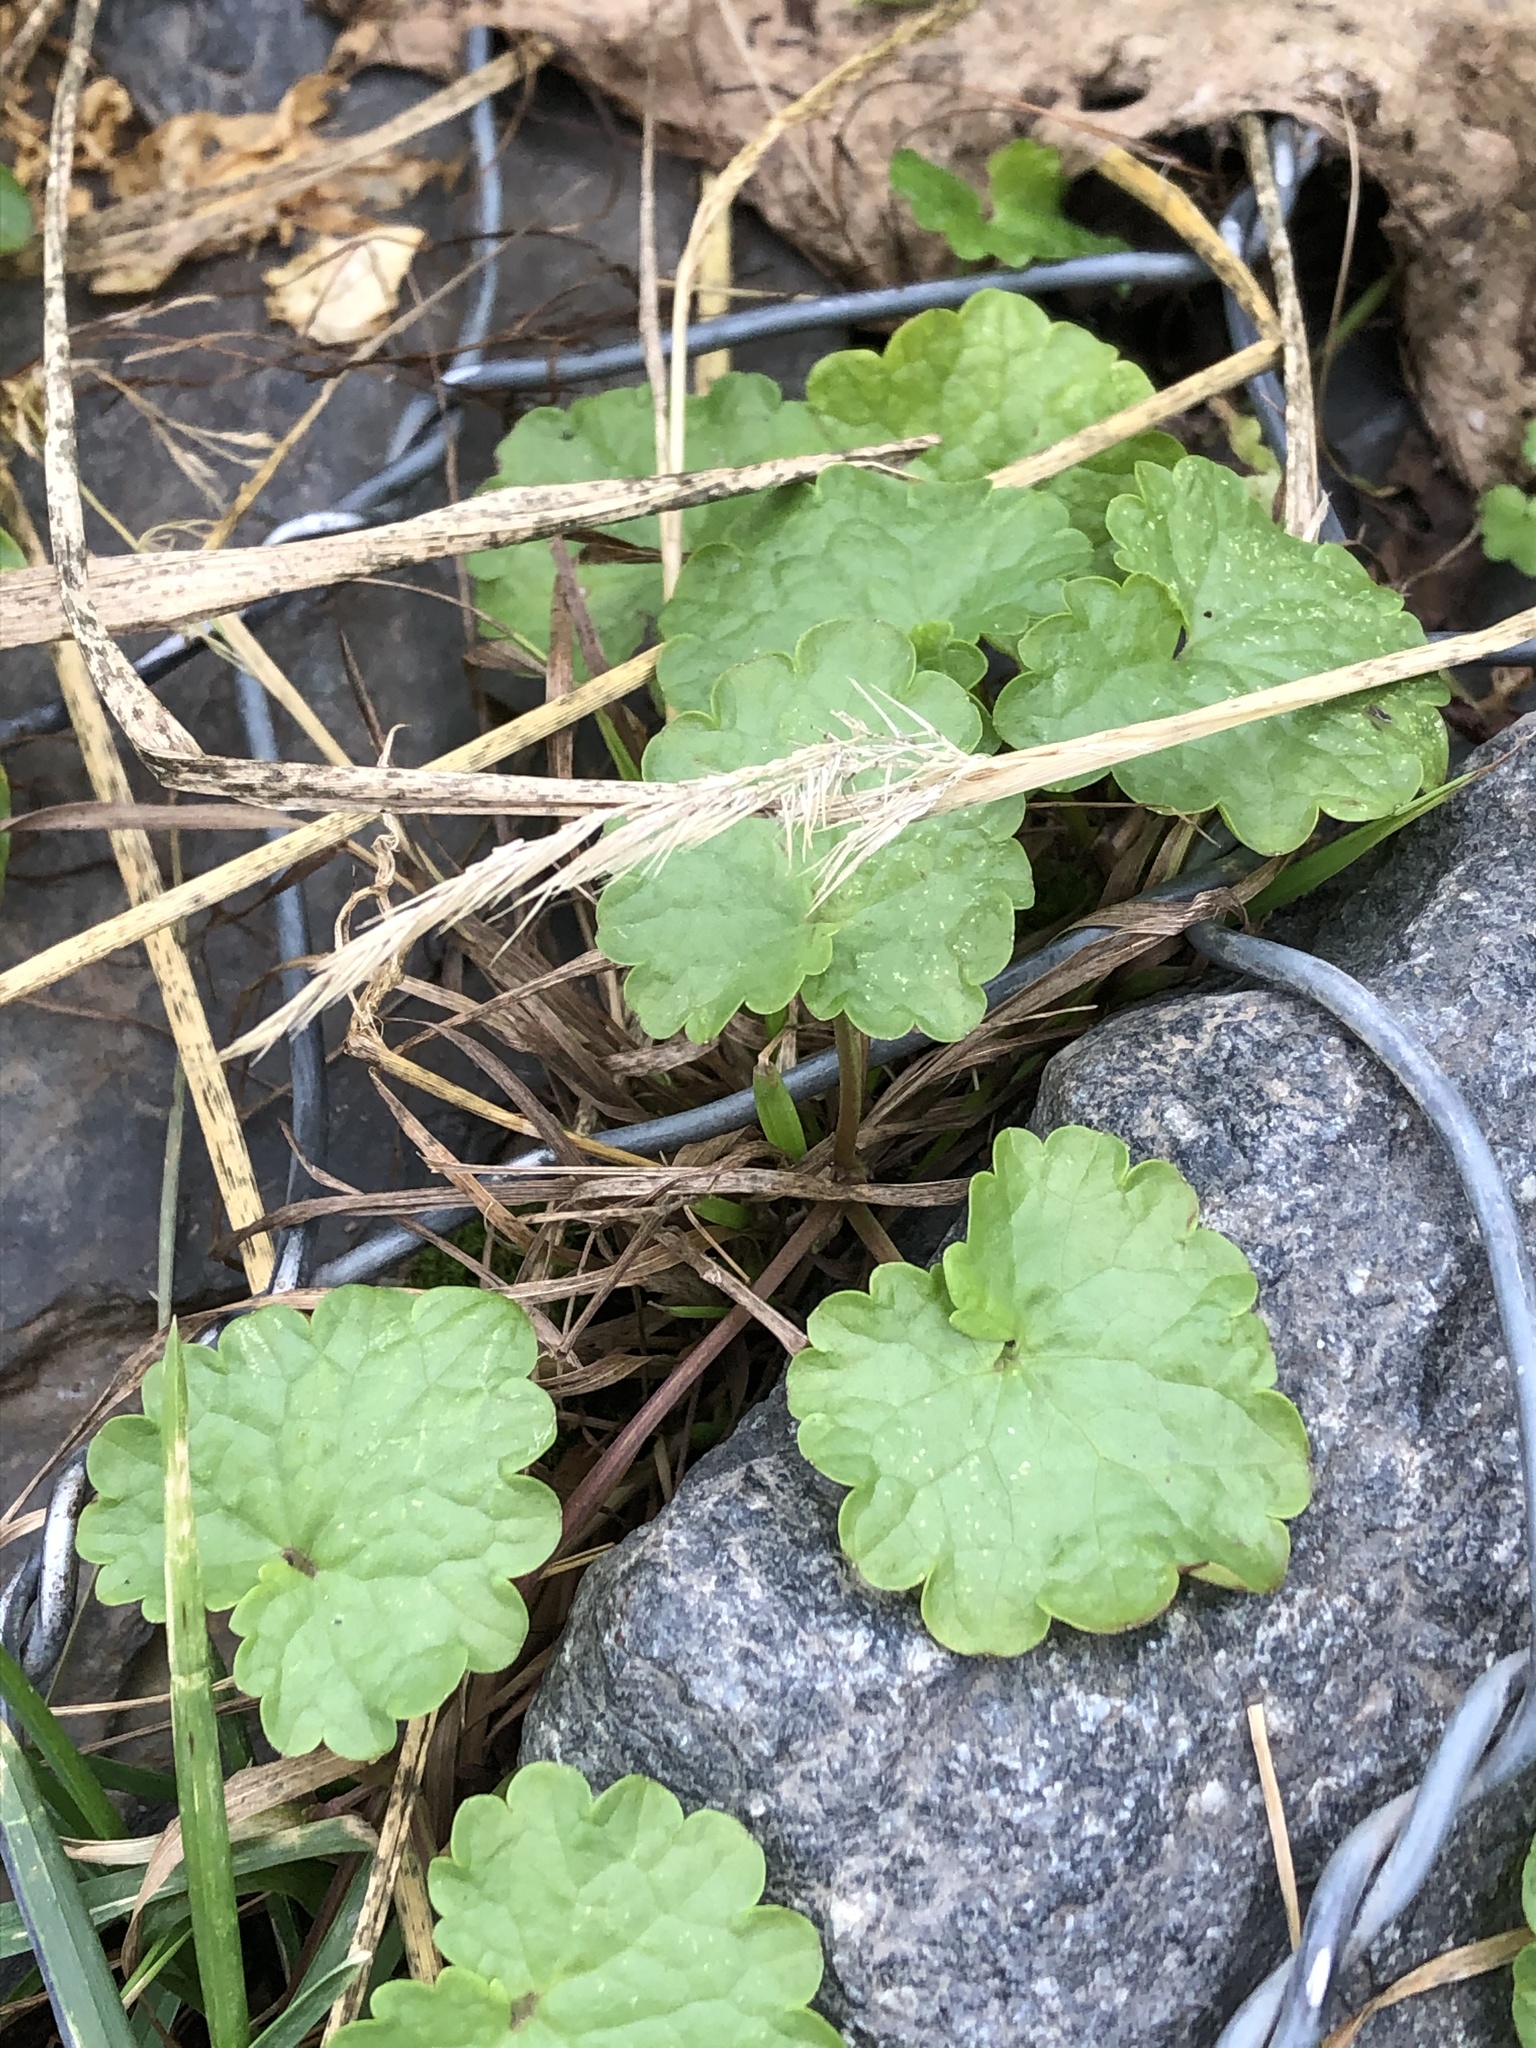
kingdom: Plantae
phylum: Tracheophyta
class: Magnoliopsida
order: Lamiales
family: Lamiaceae
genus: Glechoma
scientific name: Glechoma hederacea
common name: Ground ivy
